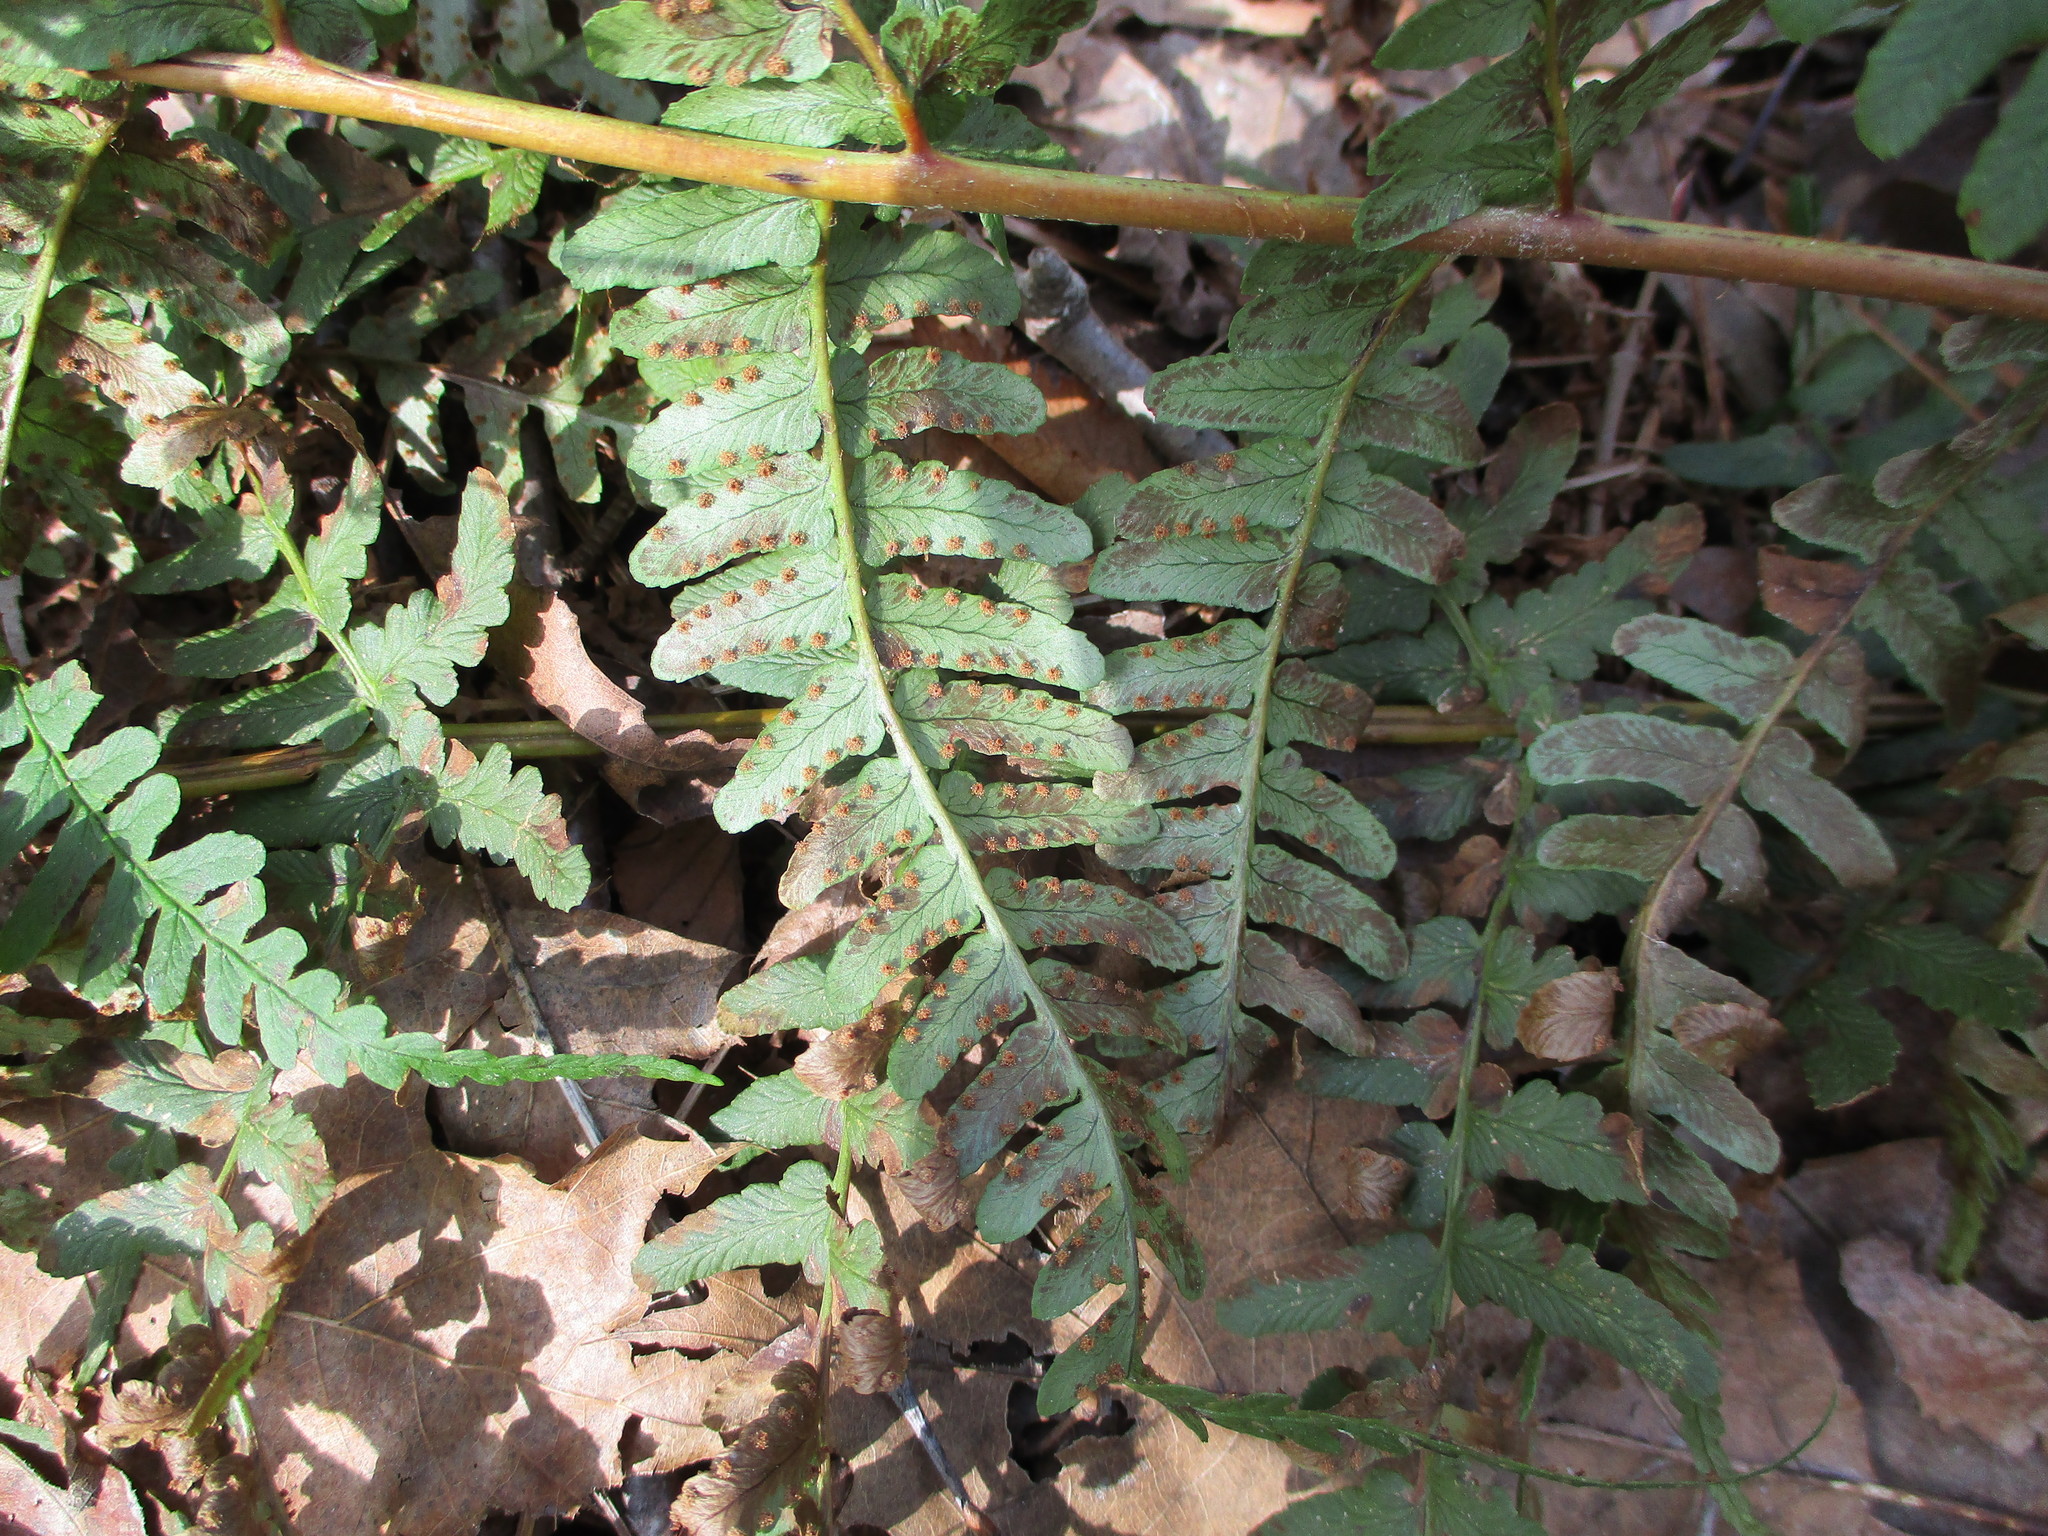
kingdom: Plantae
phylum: Tracheophyta
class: Polypodiopsida
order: Polypodiales
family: Dryopteridaceae
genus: Dryopteris
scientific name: Dryopteris marginalis
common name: Marginal wood fern
